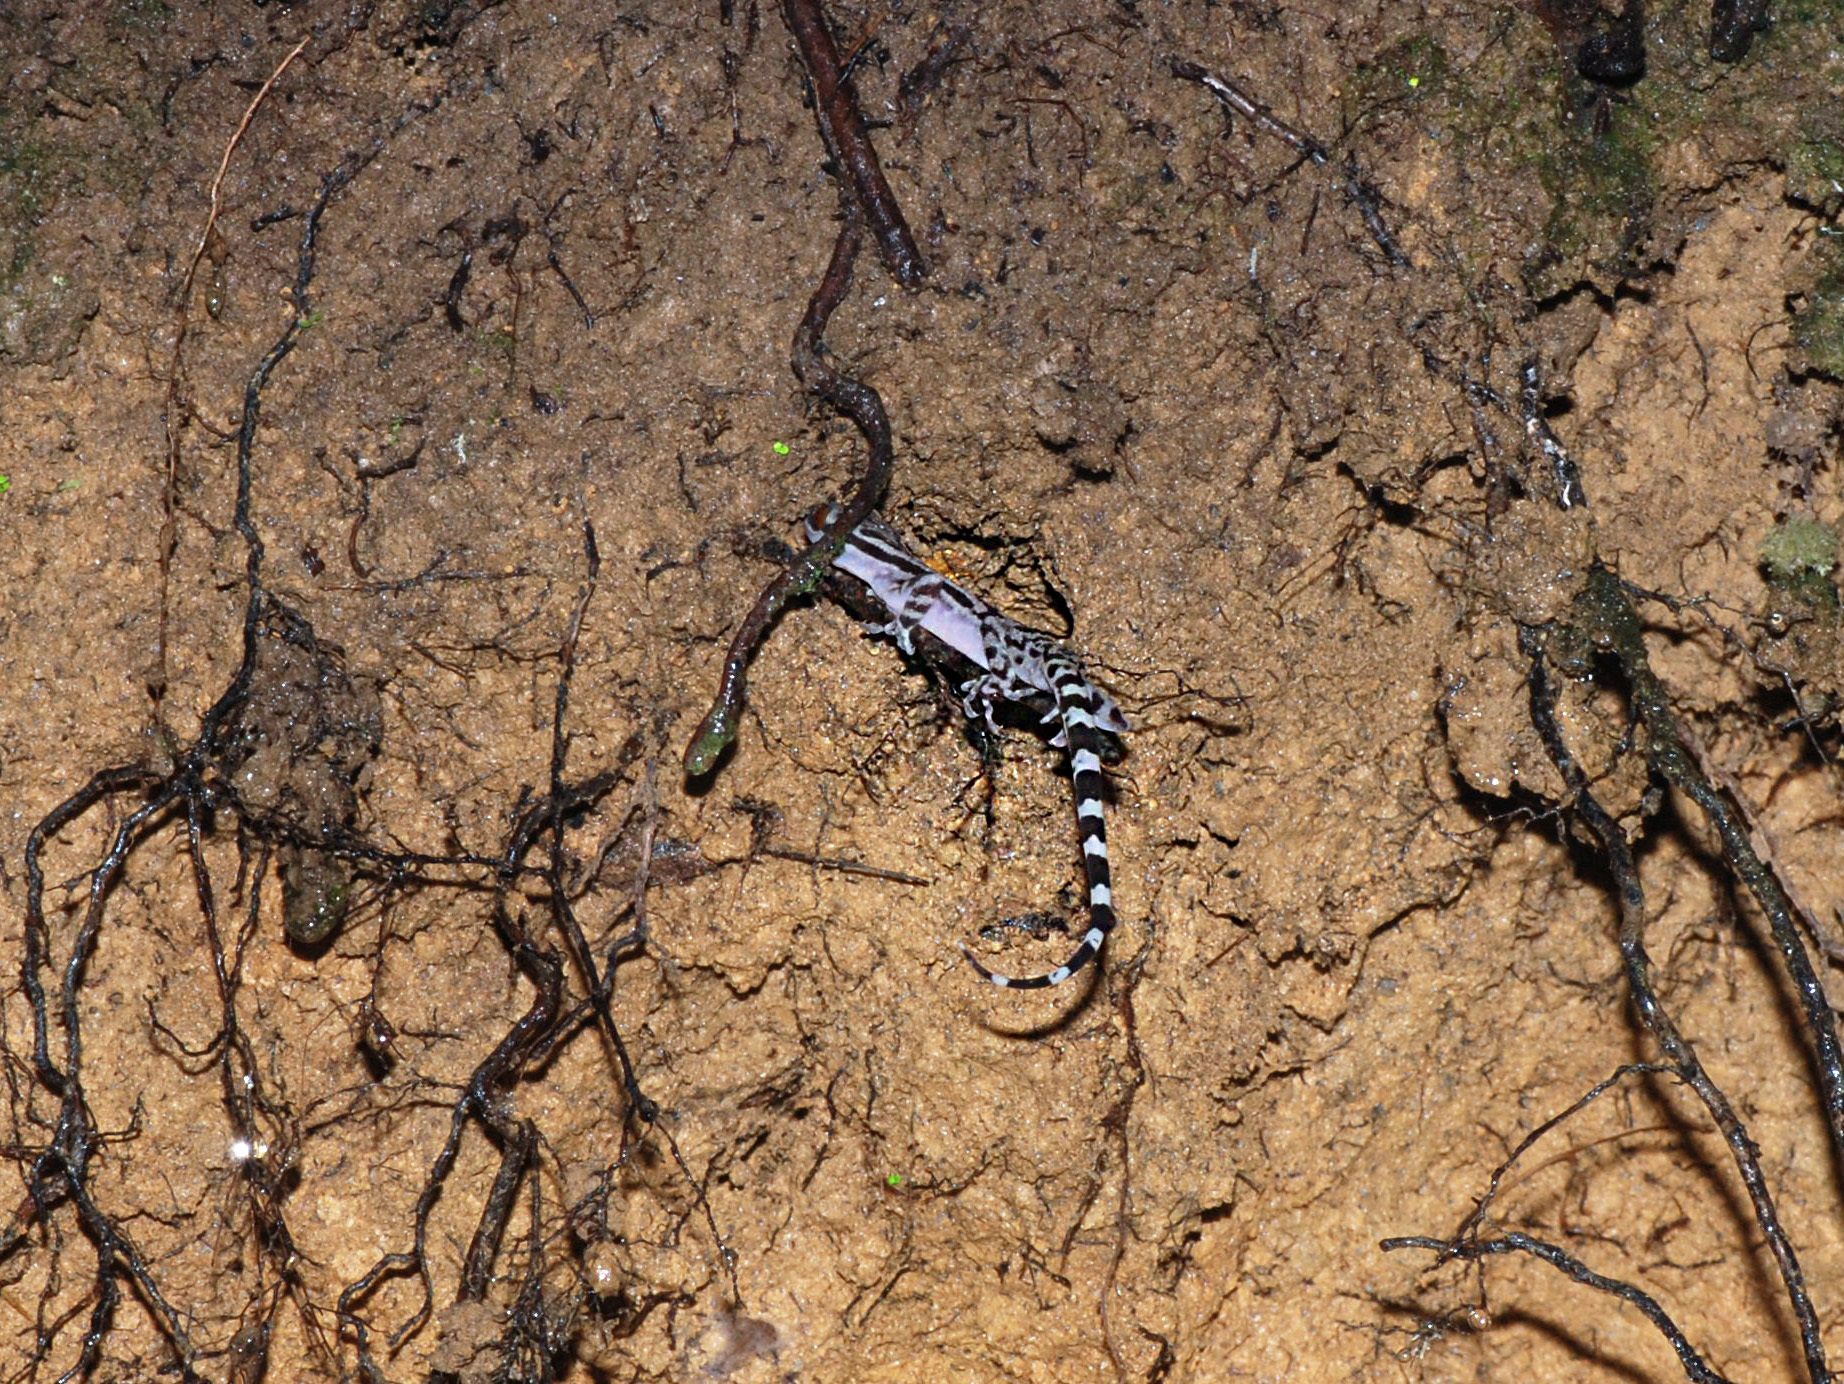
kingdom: Animalia
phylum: Chordata
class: Squamata
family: Gekkonidae
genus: Cyrtodactylus
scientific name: Cyrtodactylus quadrivirgatus
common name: Four-striped forest gecko
